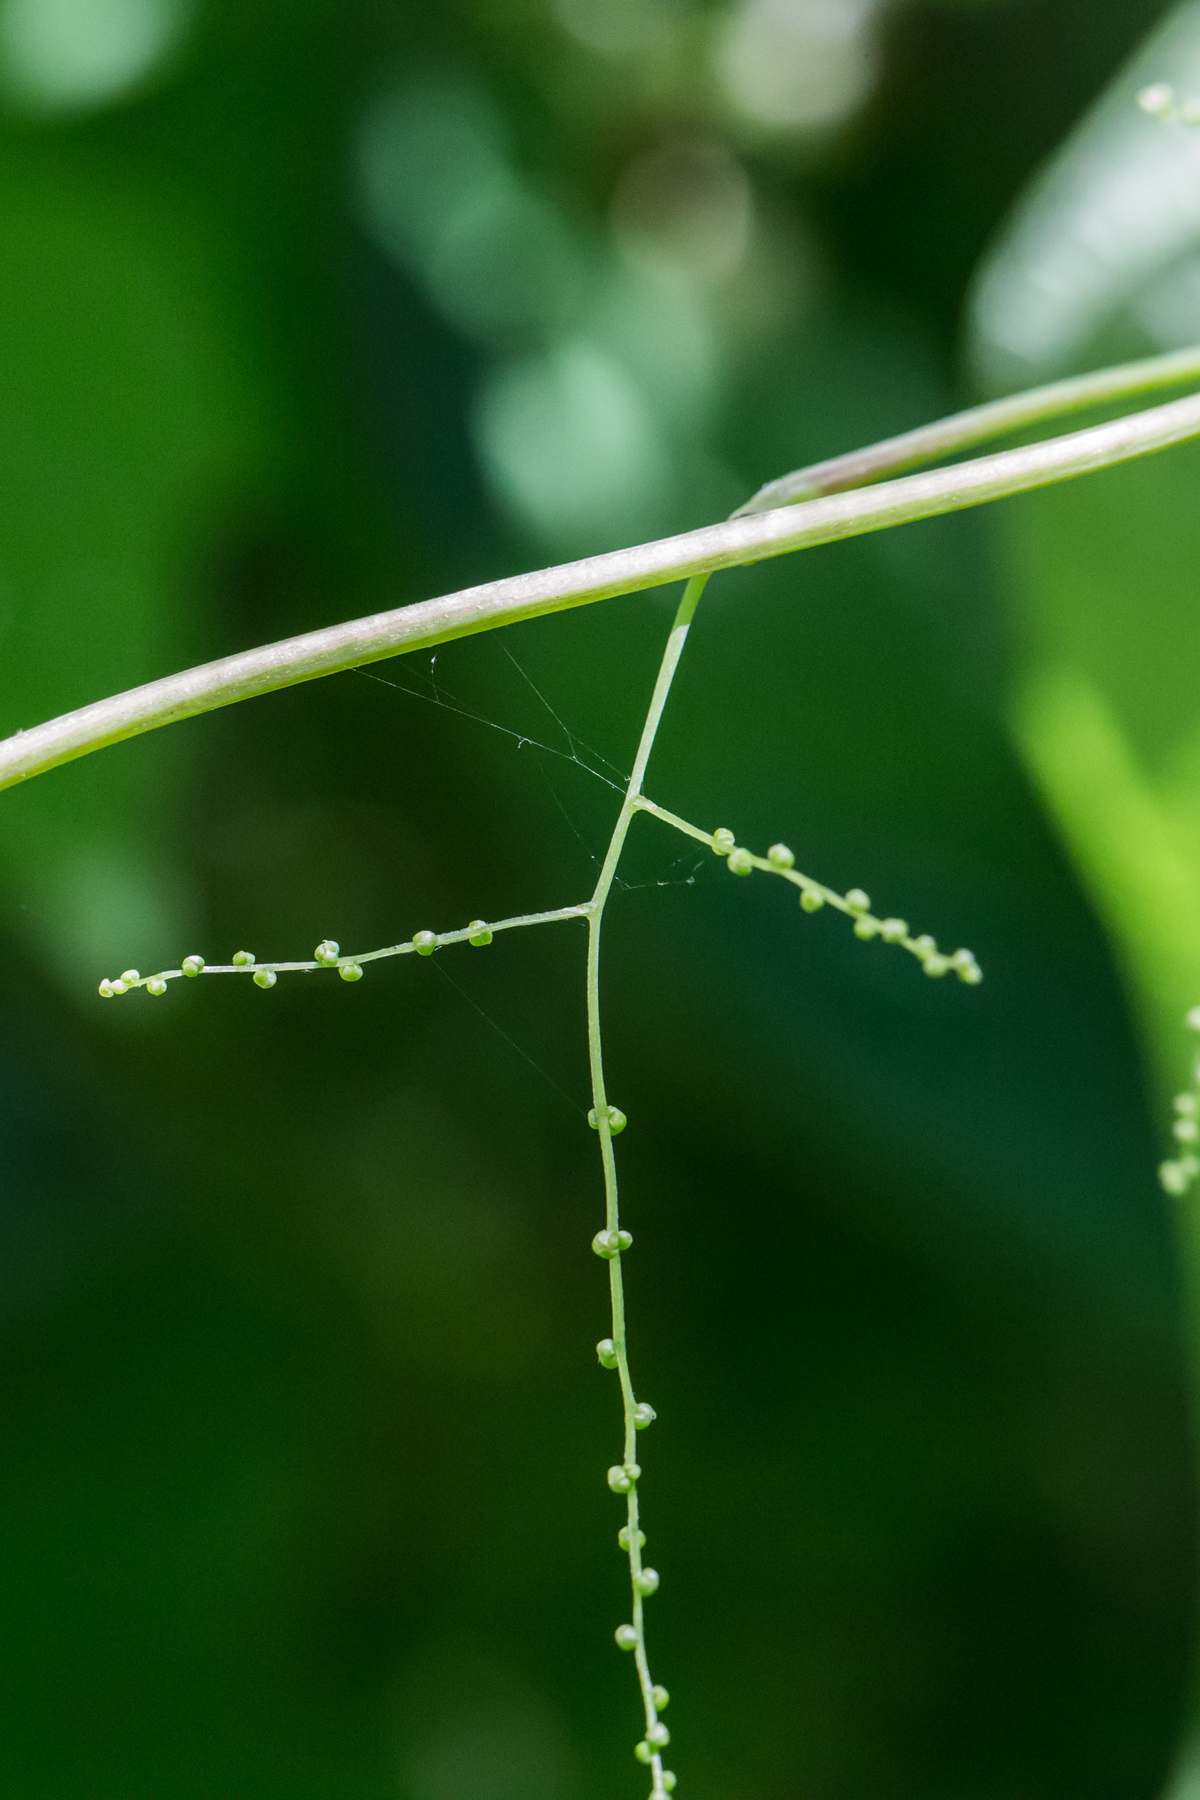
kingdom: Plantae
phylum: Tracheophyta
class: Liliopsida
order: Dioscoreales
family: Dioscoreaceae
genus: Dioscorea
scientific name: Dioscorea villosa
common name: Wild yam
